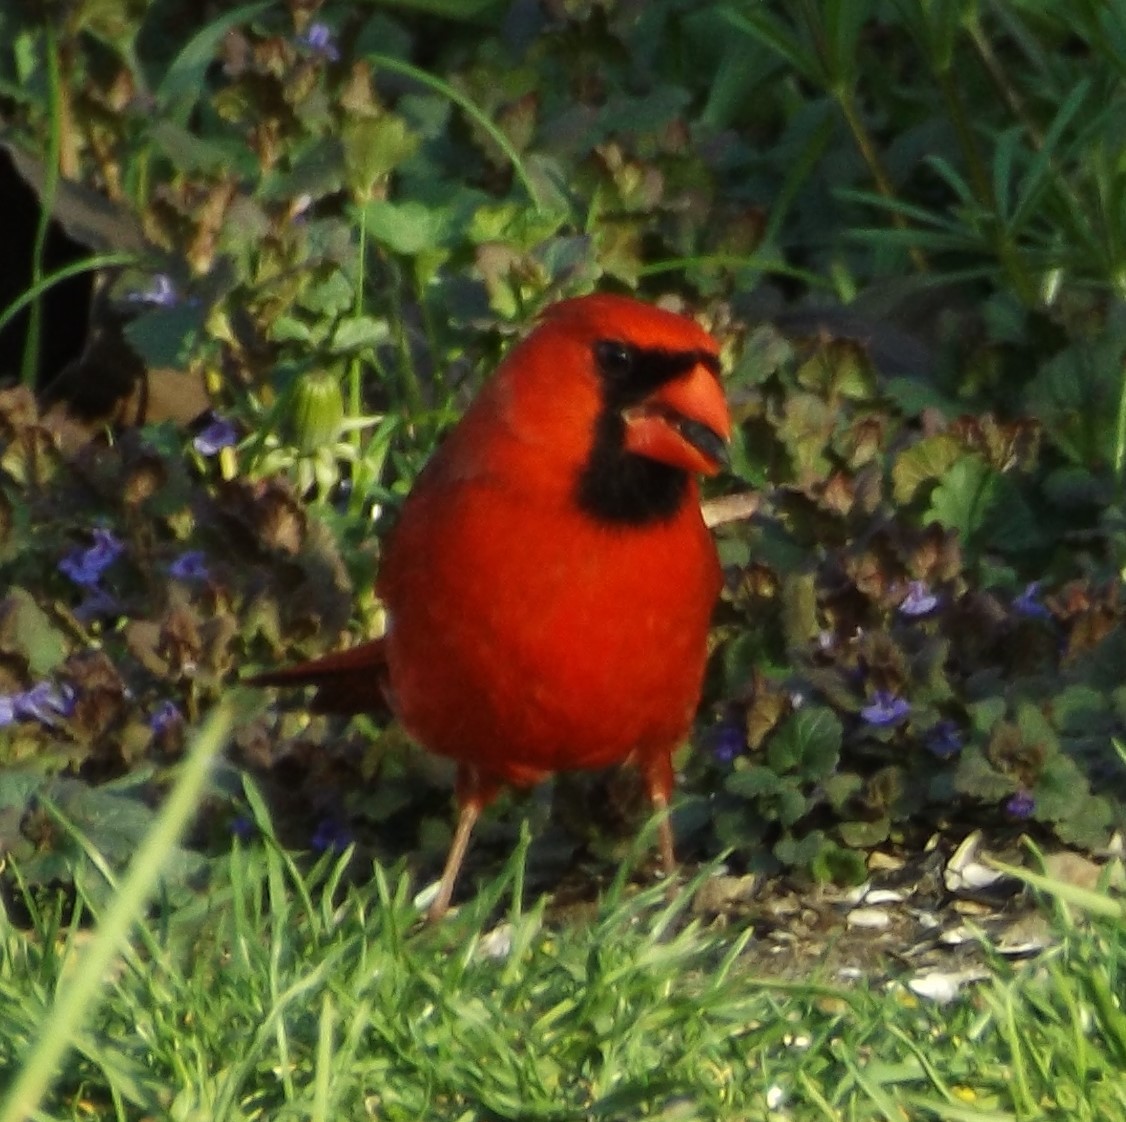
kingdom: Animalia
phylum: Chordata
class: Aves
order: Passeriformes
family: Cardinalidae
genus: Cardinalis
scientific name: Cardinalis cardinalis
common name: Northern cardinal
